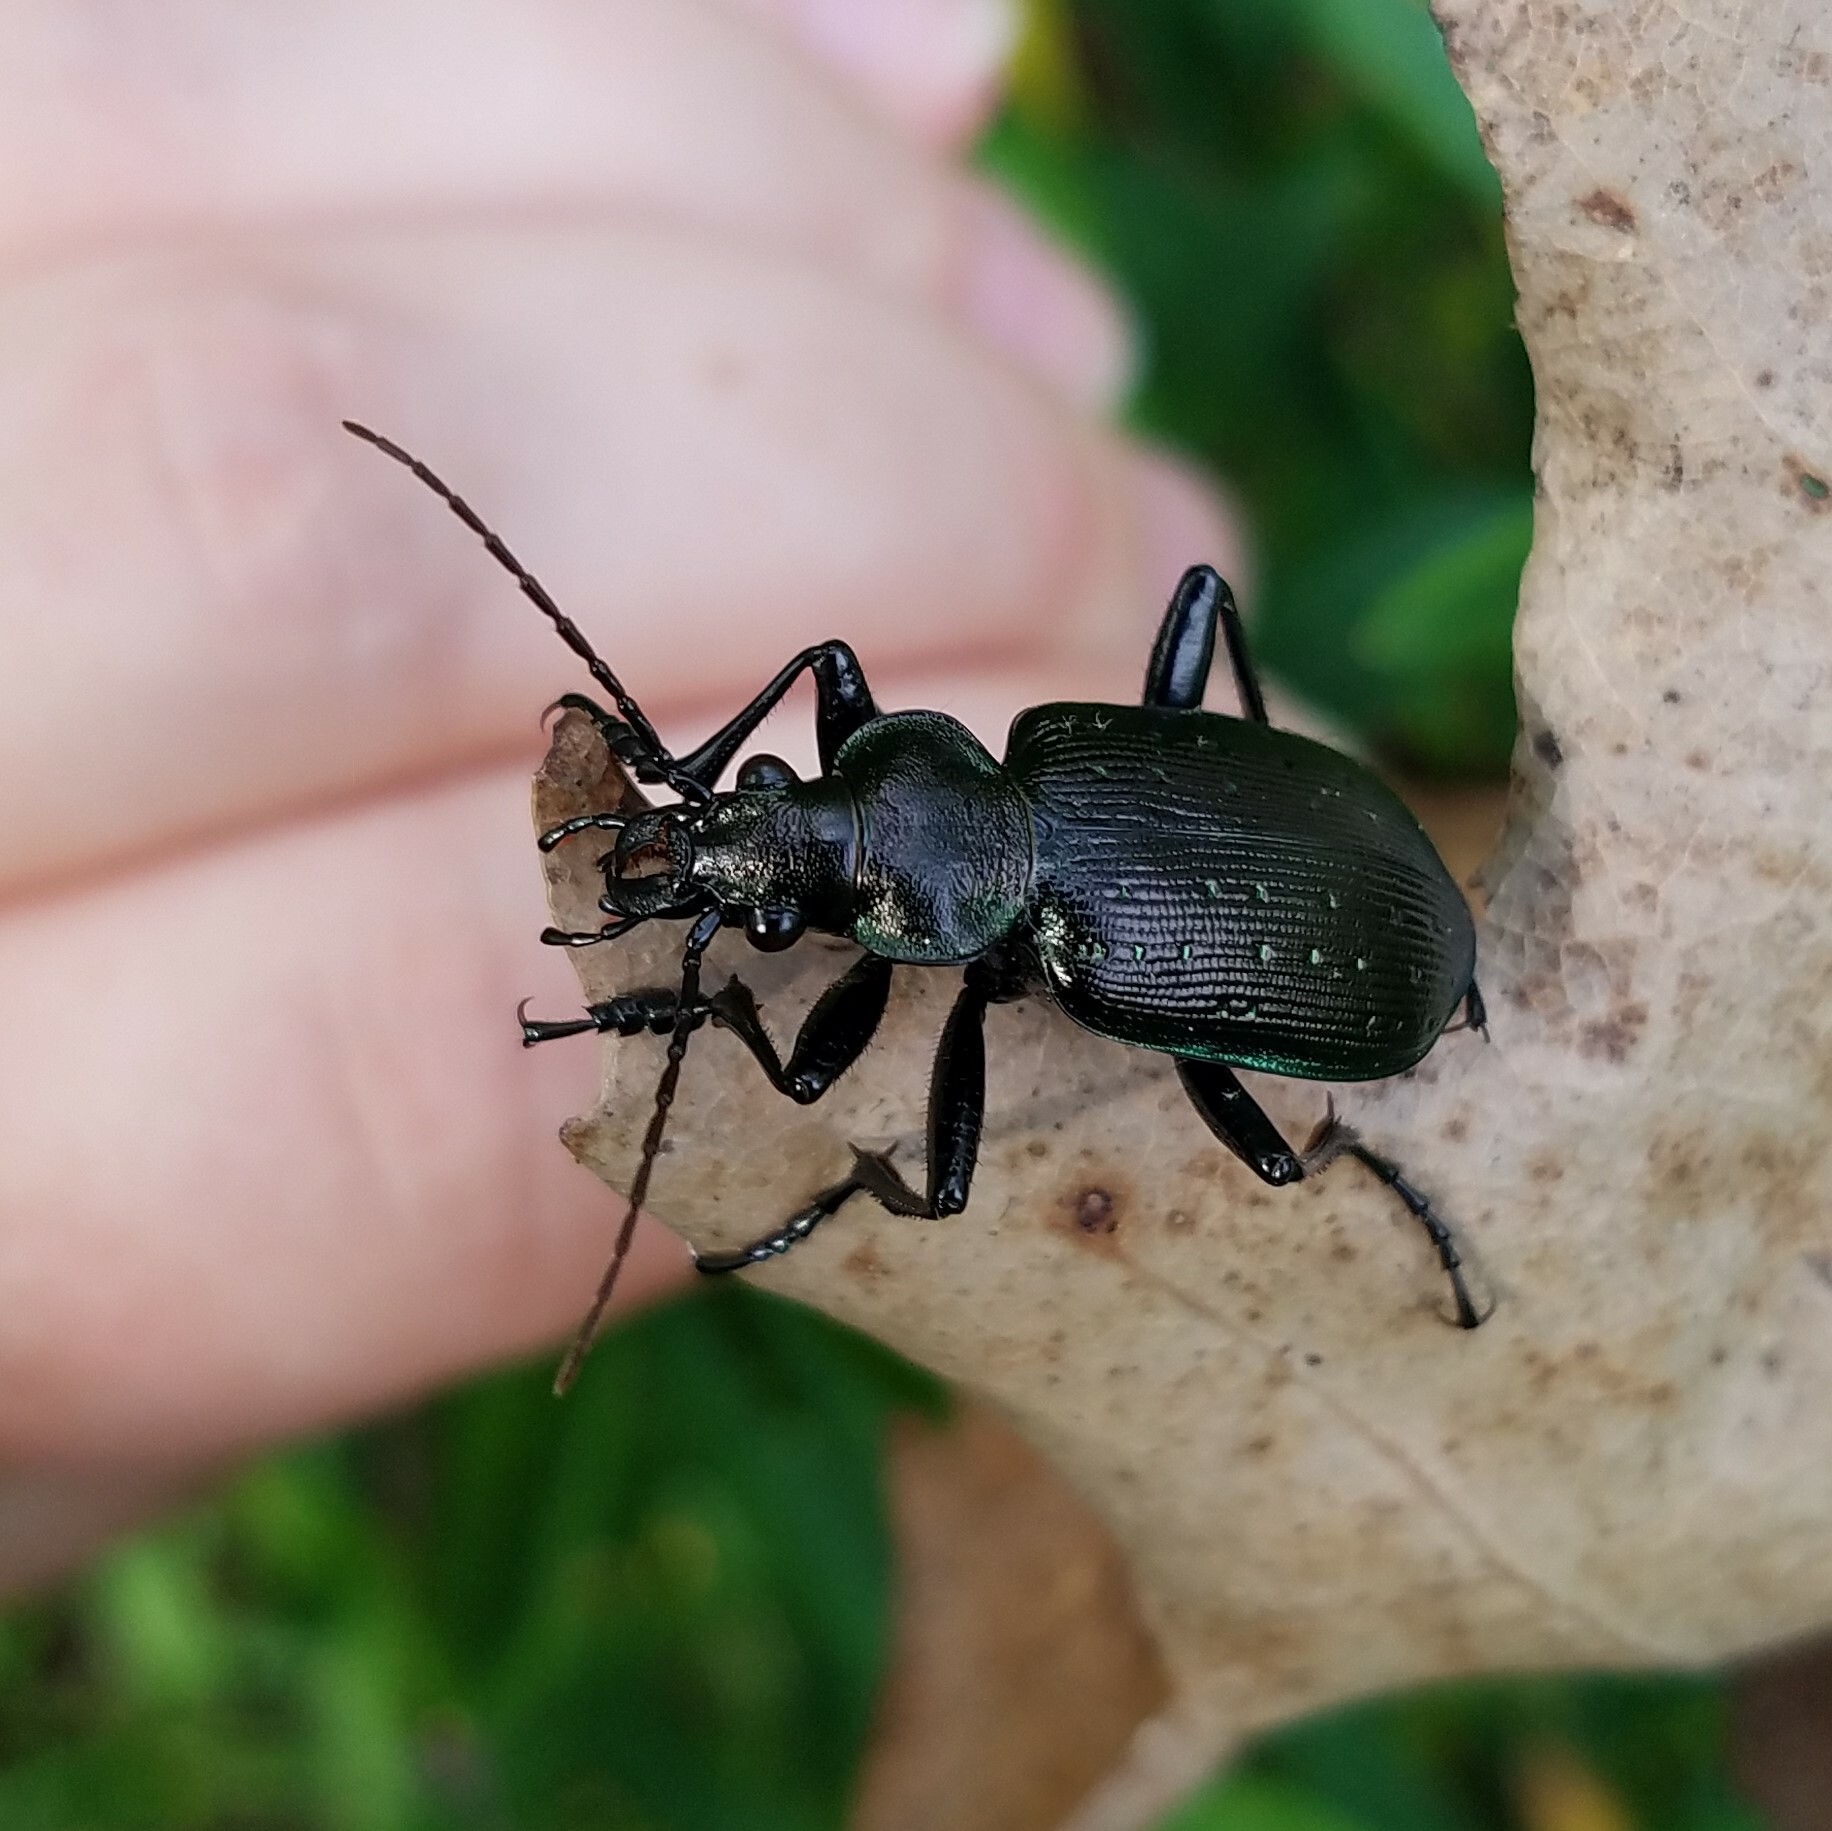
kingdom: Animalia
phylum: Arthropoda
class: Insecta
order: Coleoptera
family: Carabidae
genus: Calosoma
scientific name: Calosoma frigidum
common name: Cold-country caterpillar hunter
